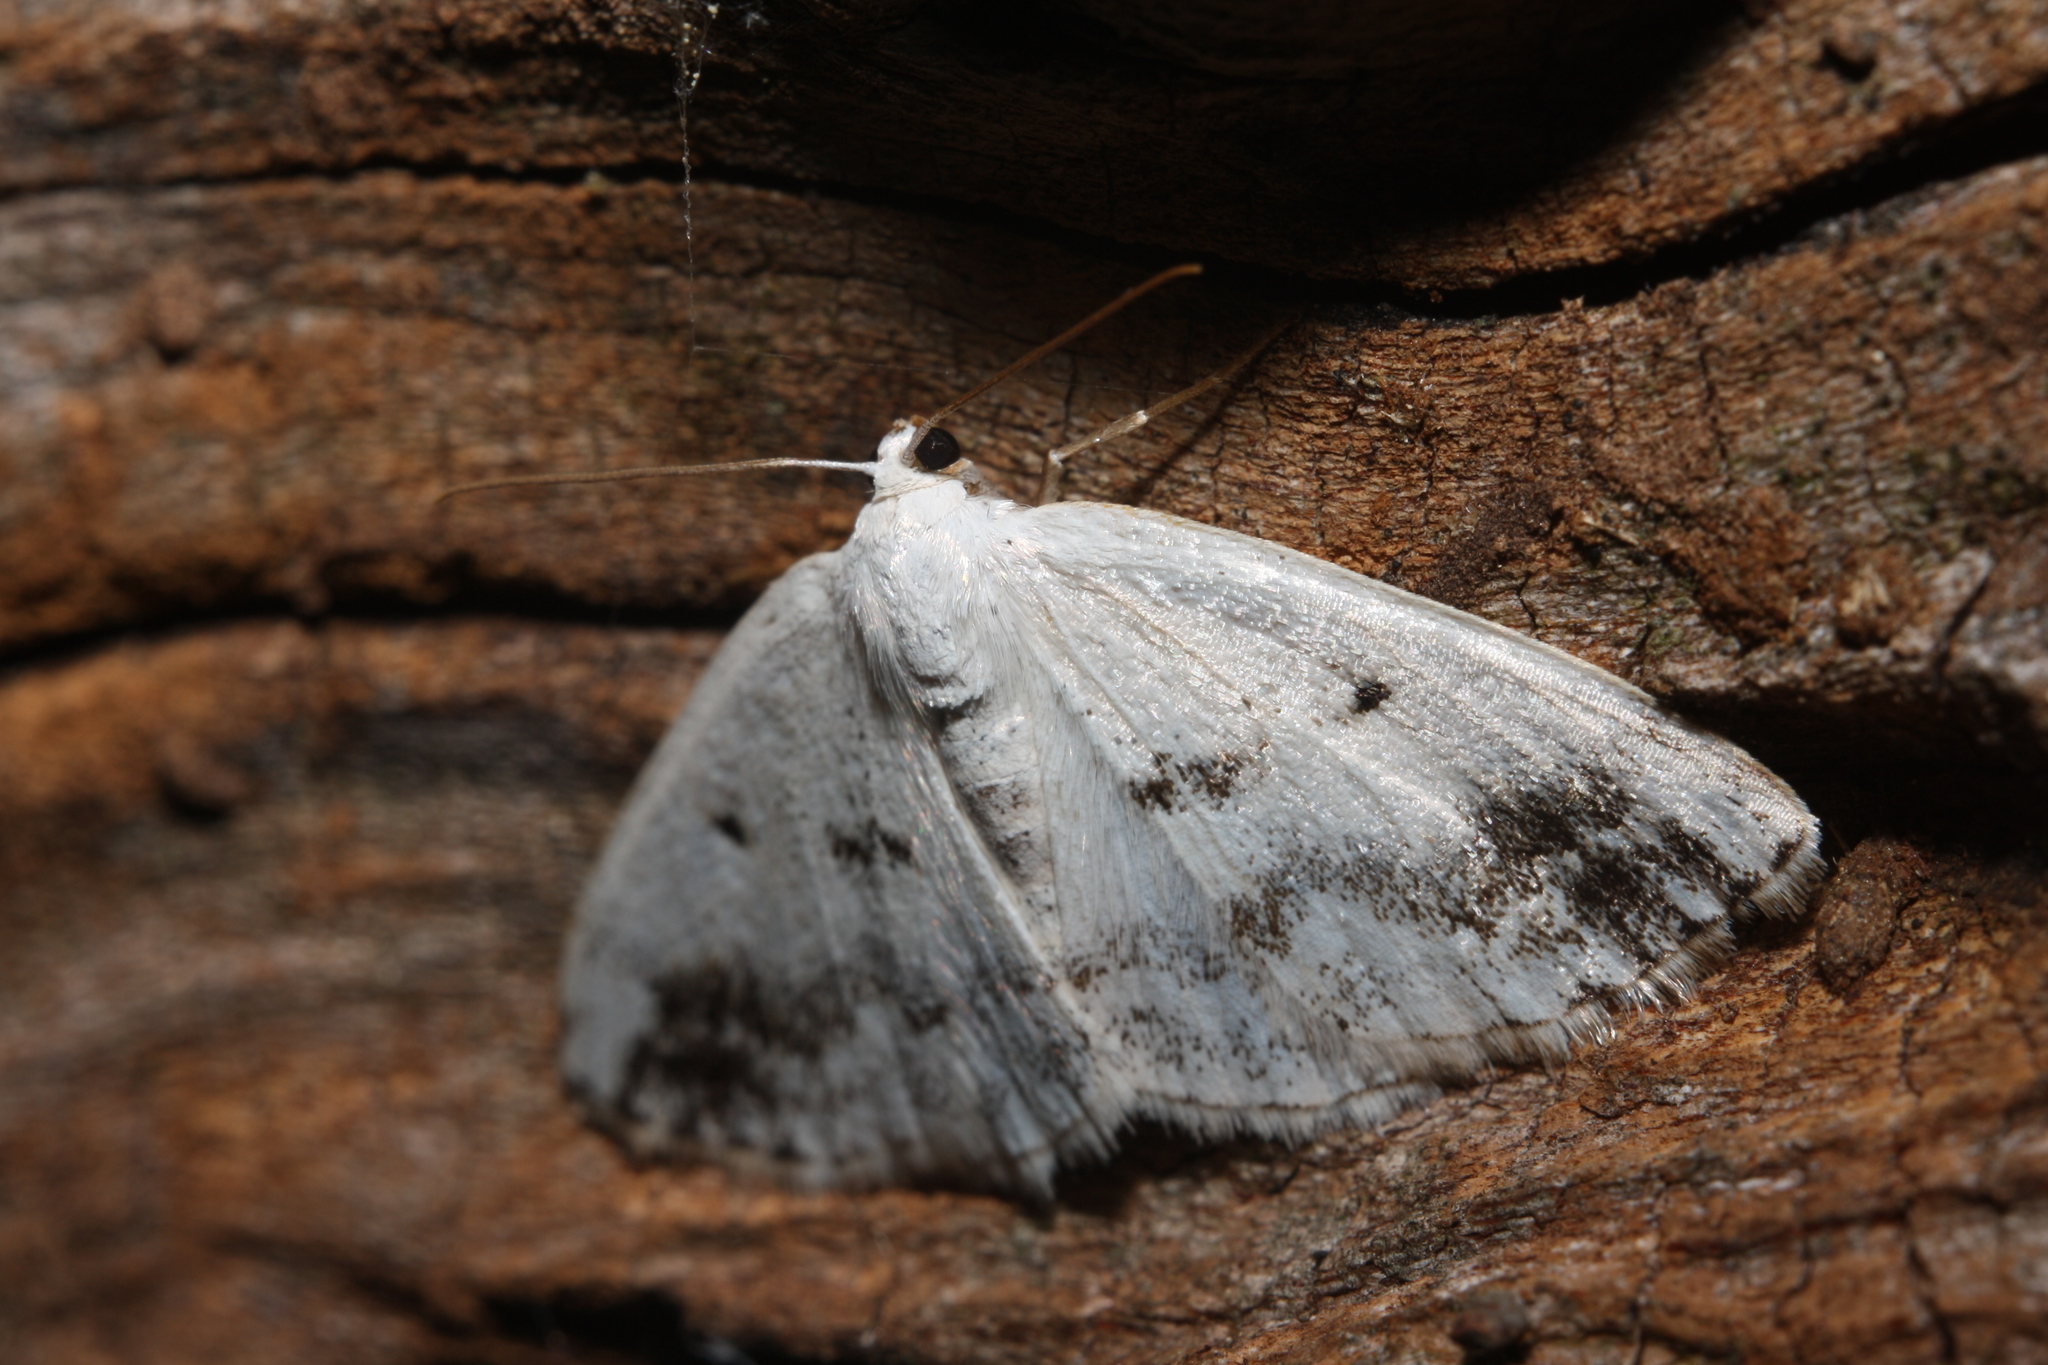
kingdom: Animalia
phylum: Arthropoda
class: Insecta
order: Lepidoptera
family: Geometridae
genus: Lomographa
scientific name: Lomographa temerata
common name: Clouded silver
